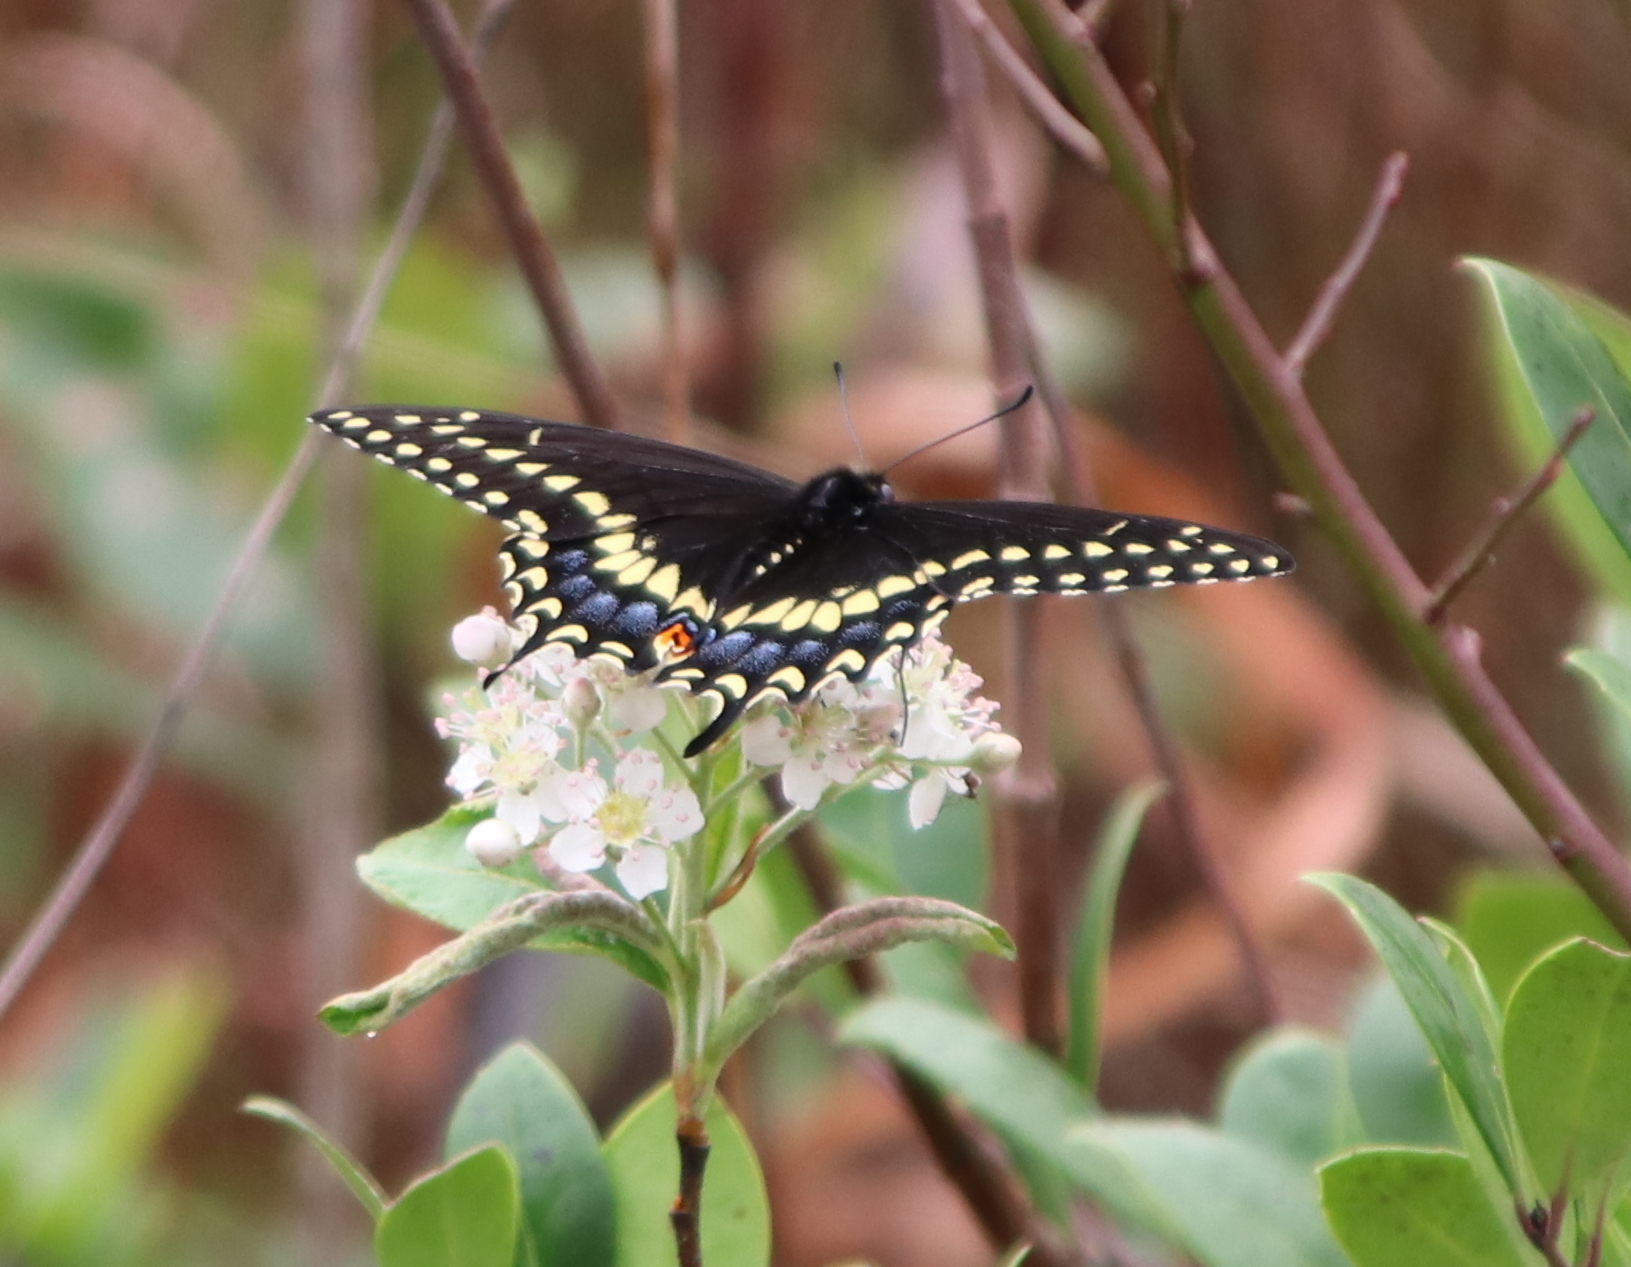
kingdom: Animalia
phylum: Arthropoda
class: Insecta
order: Lepidoptera
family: Papilionidae
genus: Papilio
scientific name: Papilio polyxenes
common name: Black swallowtail
